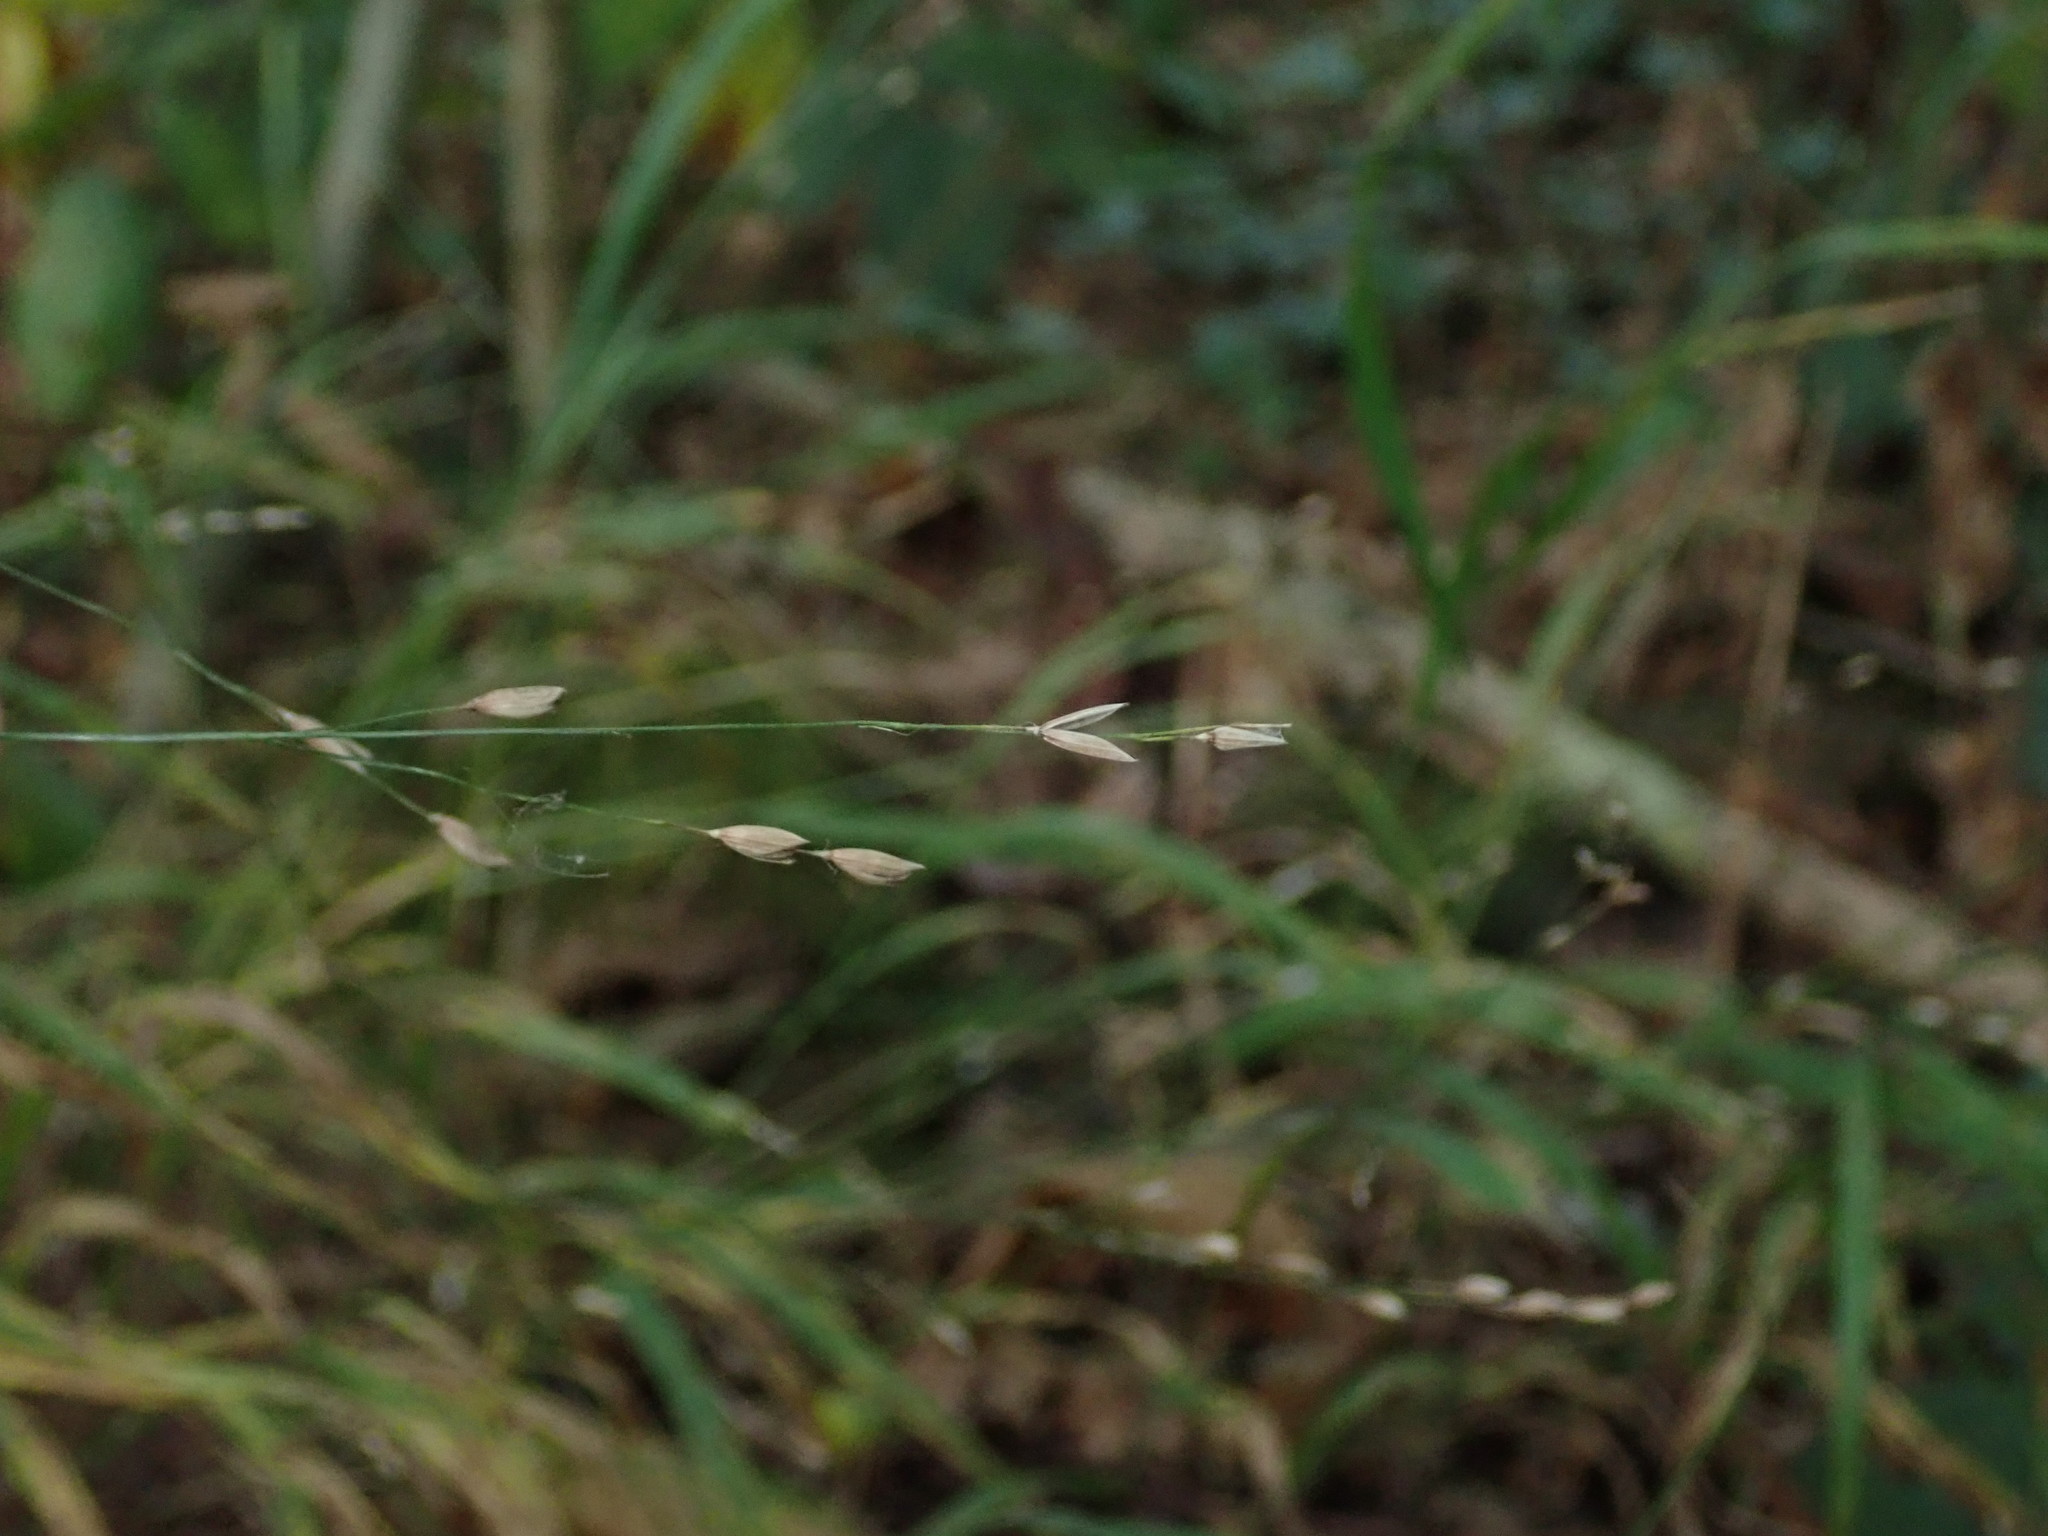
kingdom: Plantae
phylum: Tracheophyta
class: Liliopsida
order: Poales
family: Poaceae
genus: Melica
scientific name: Melica uniflora
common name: Wood melick
